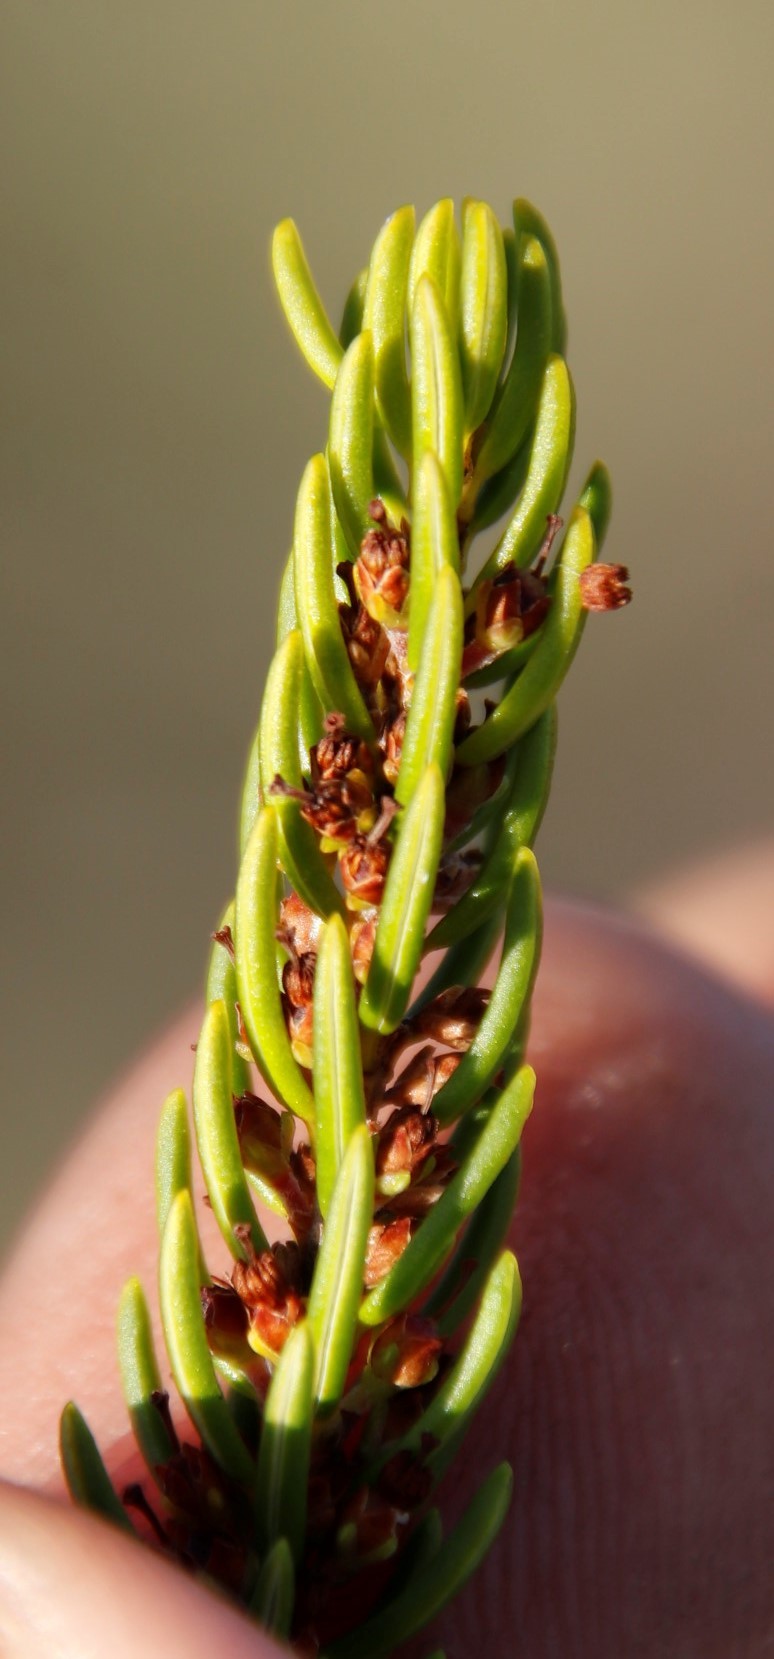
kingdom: Plantae
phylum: Tracheophyta
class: Magnoliopsida
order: Ericales
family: Ericaceae
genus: Erica
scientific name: Erica coarctata
